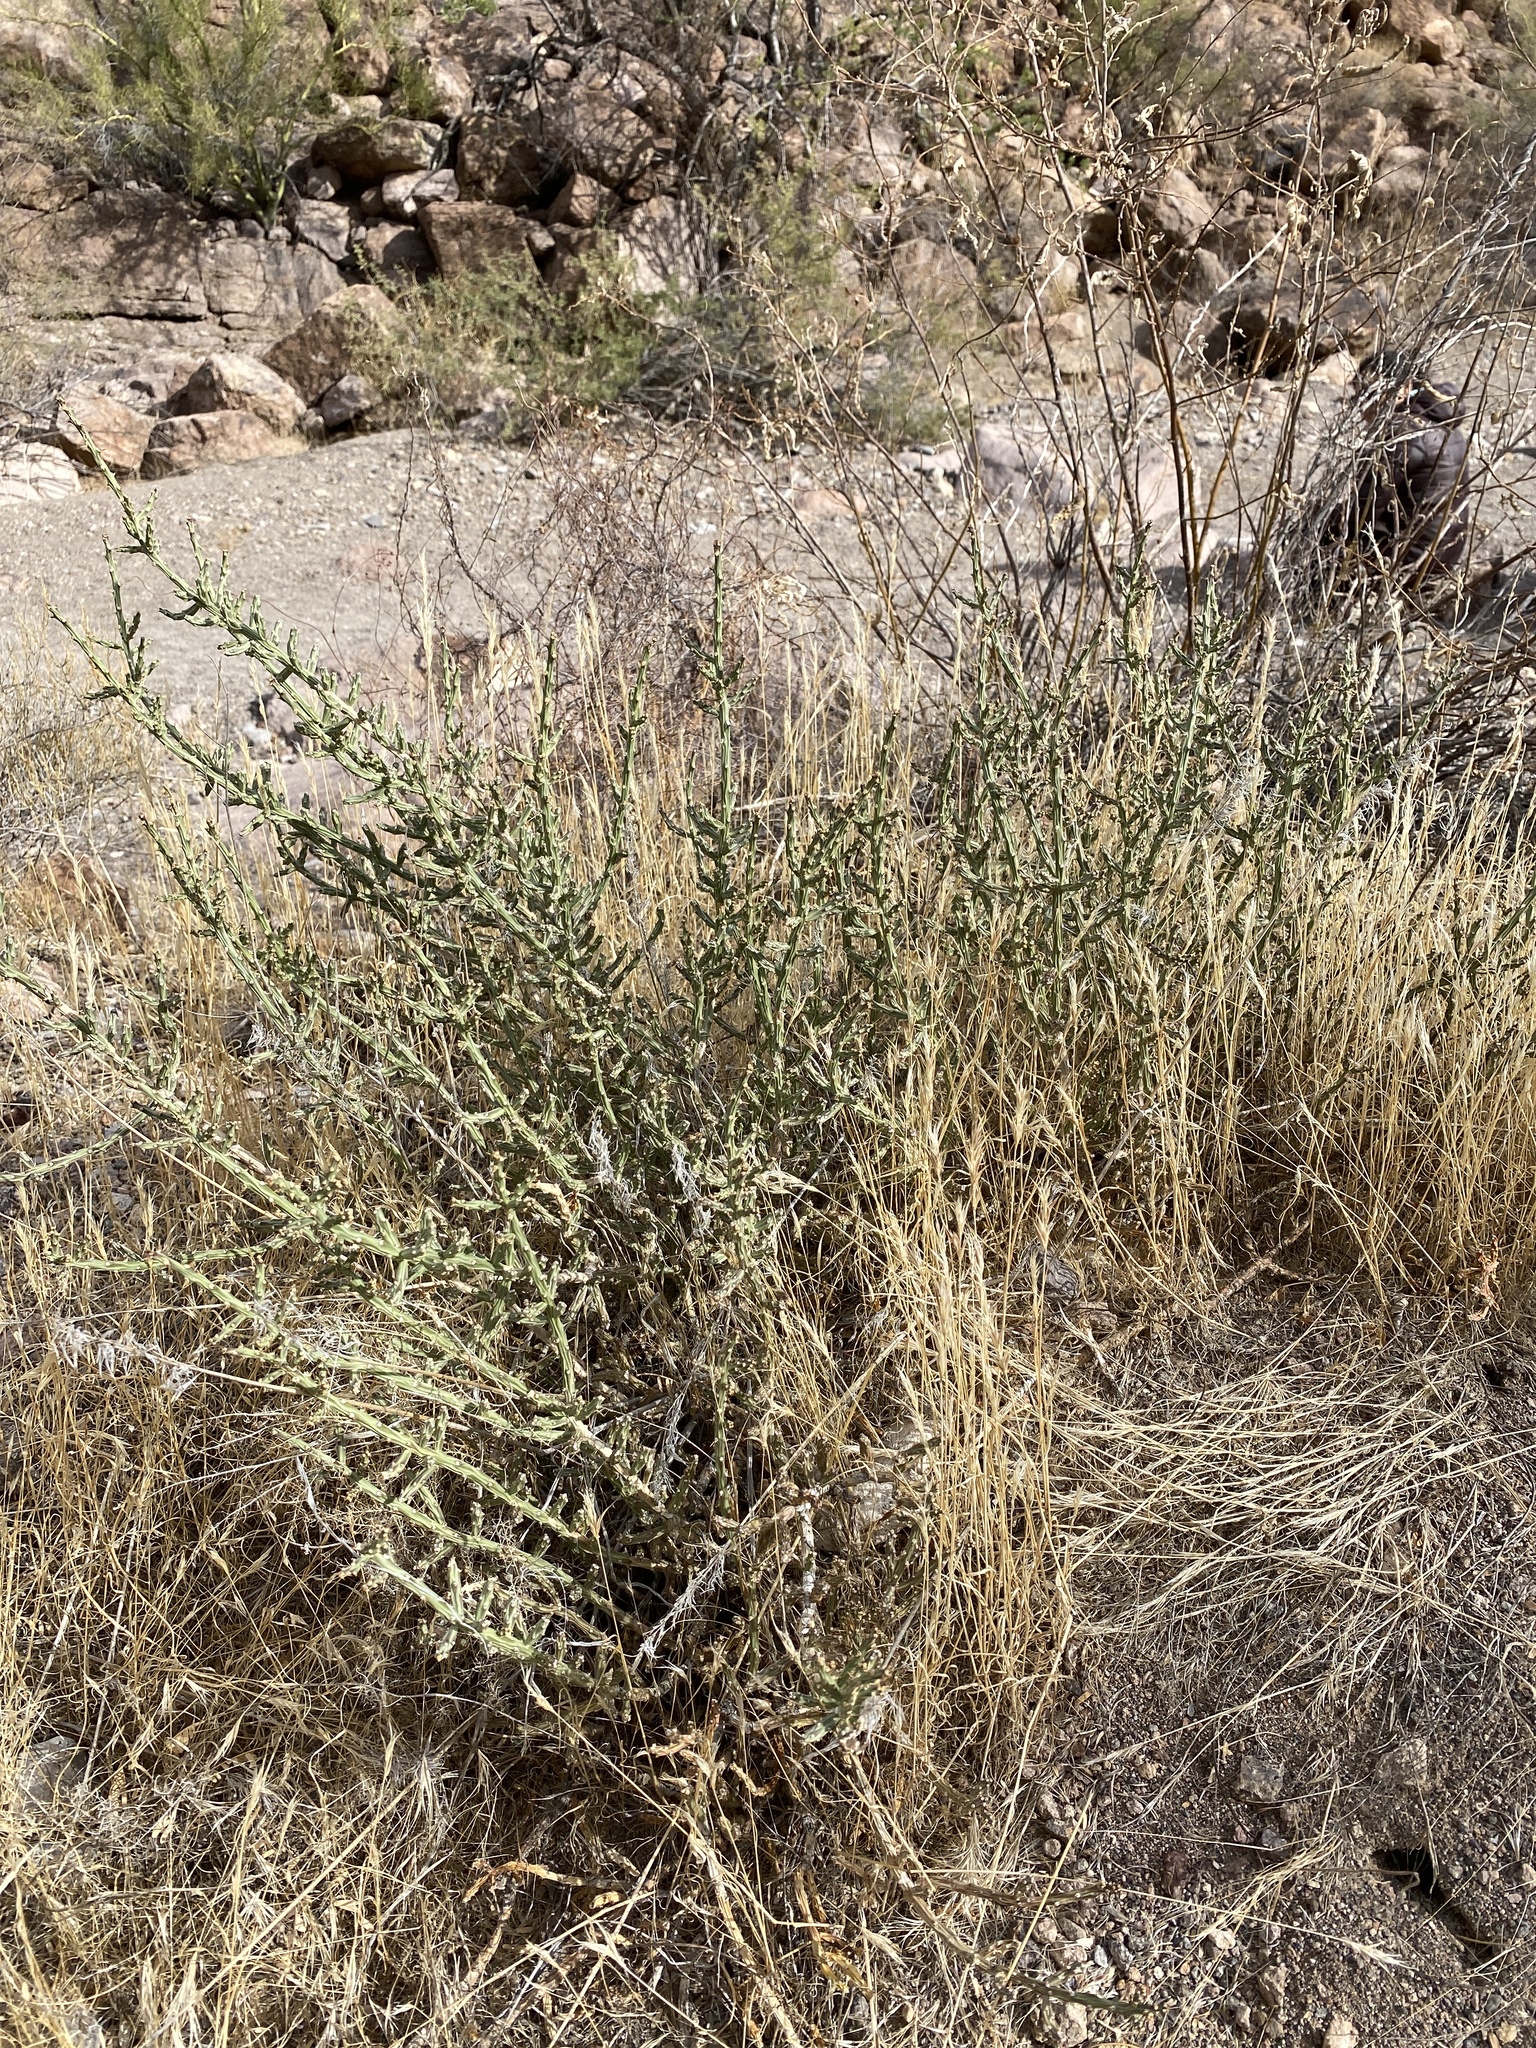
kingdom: Plantae
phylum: Tracheophyta
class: Magnoliopsida
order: Caryophyllales
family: Cactaceae
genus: Cylindropuntia
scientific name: Cylindropuntia leptocaulis
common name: Christmas cactus
